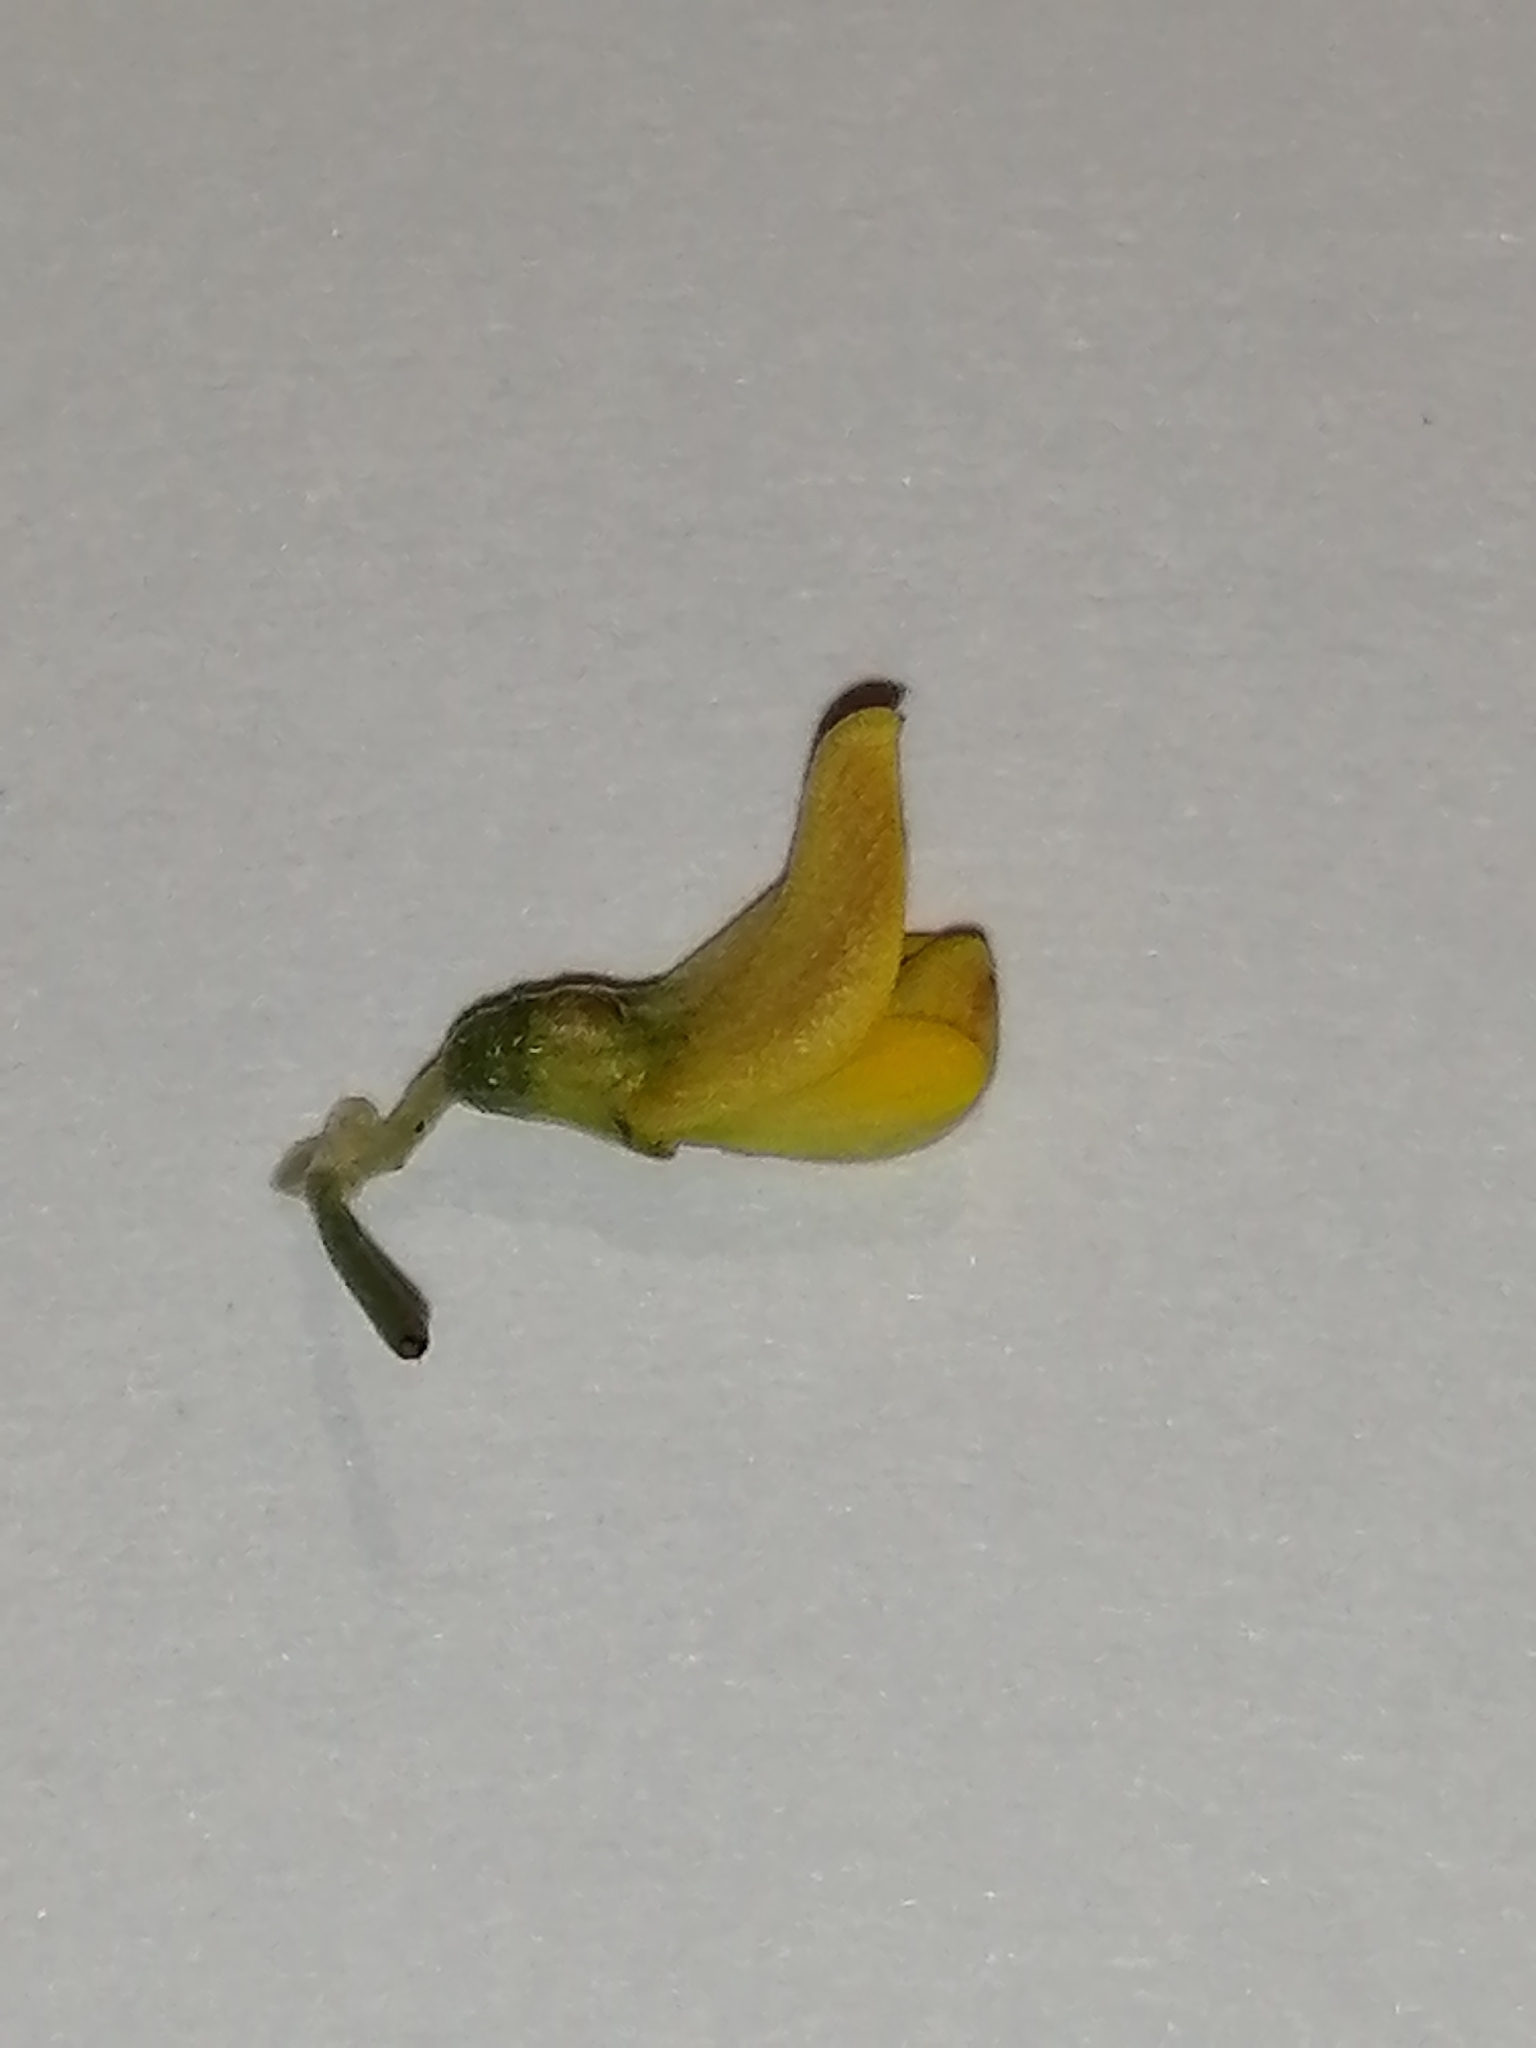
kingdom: Plantae
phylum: Tracheophyta
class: Magnoliopsida
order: Fabales
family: Fabaceae
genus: Aspalathus
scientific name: Aspalathus lactea
